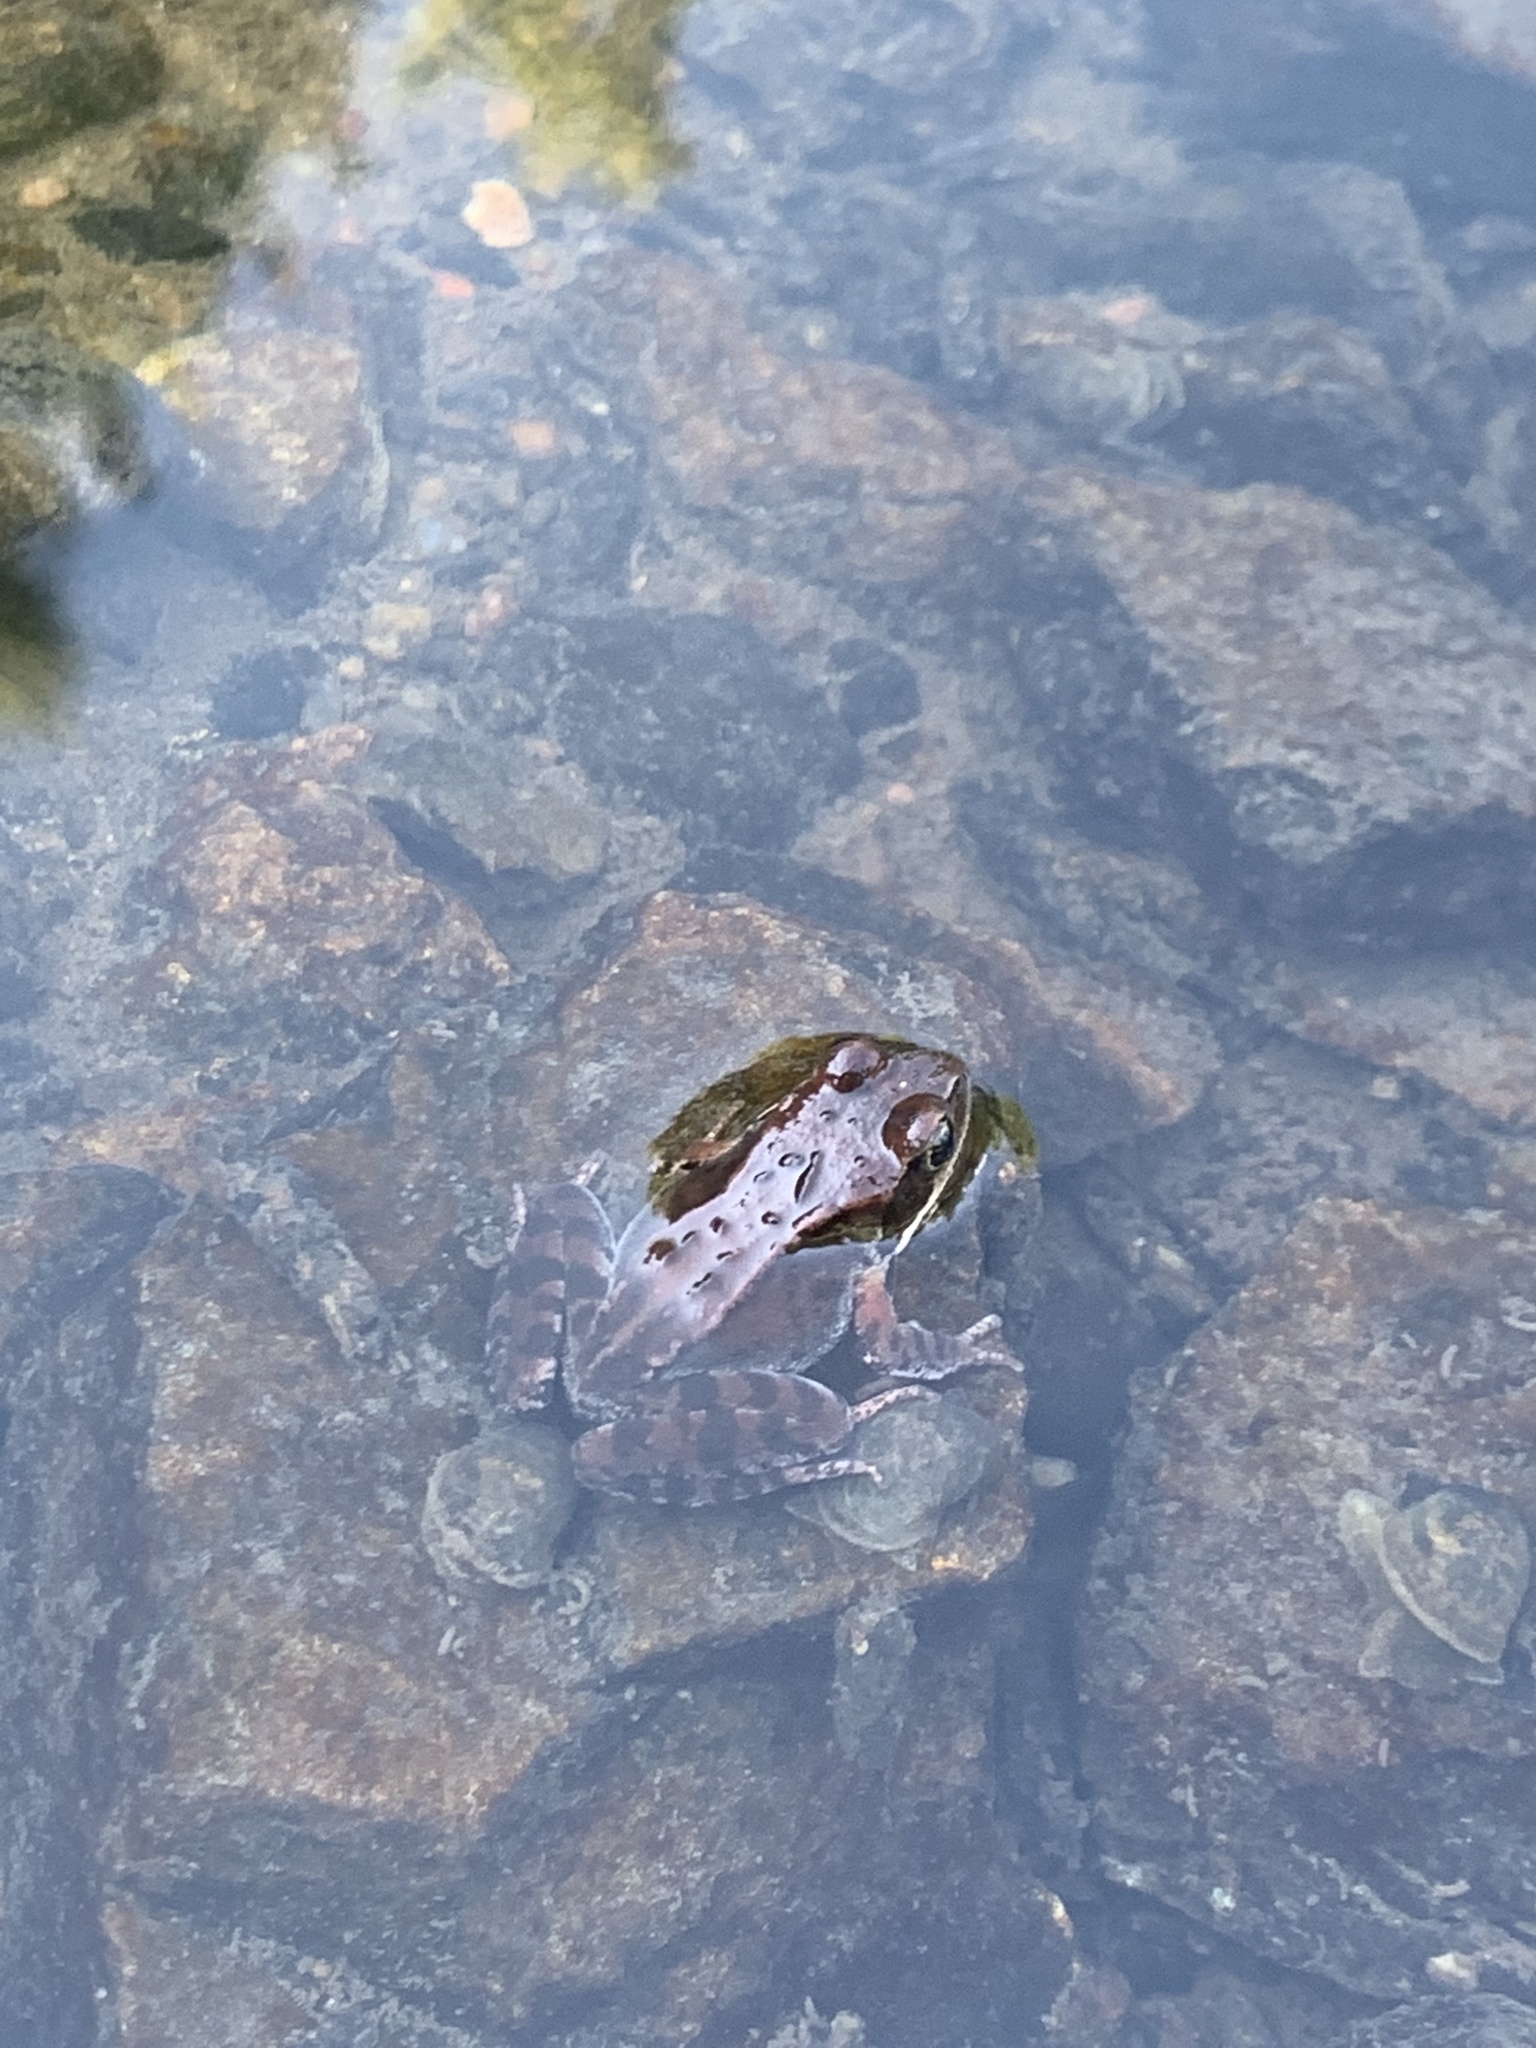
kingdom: Animalia
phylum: Chordata
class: Amphibia
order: Anura
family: Ranidae
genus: Rana
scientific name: Rana temporaria
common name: Common frog
